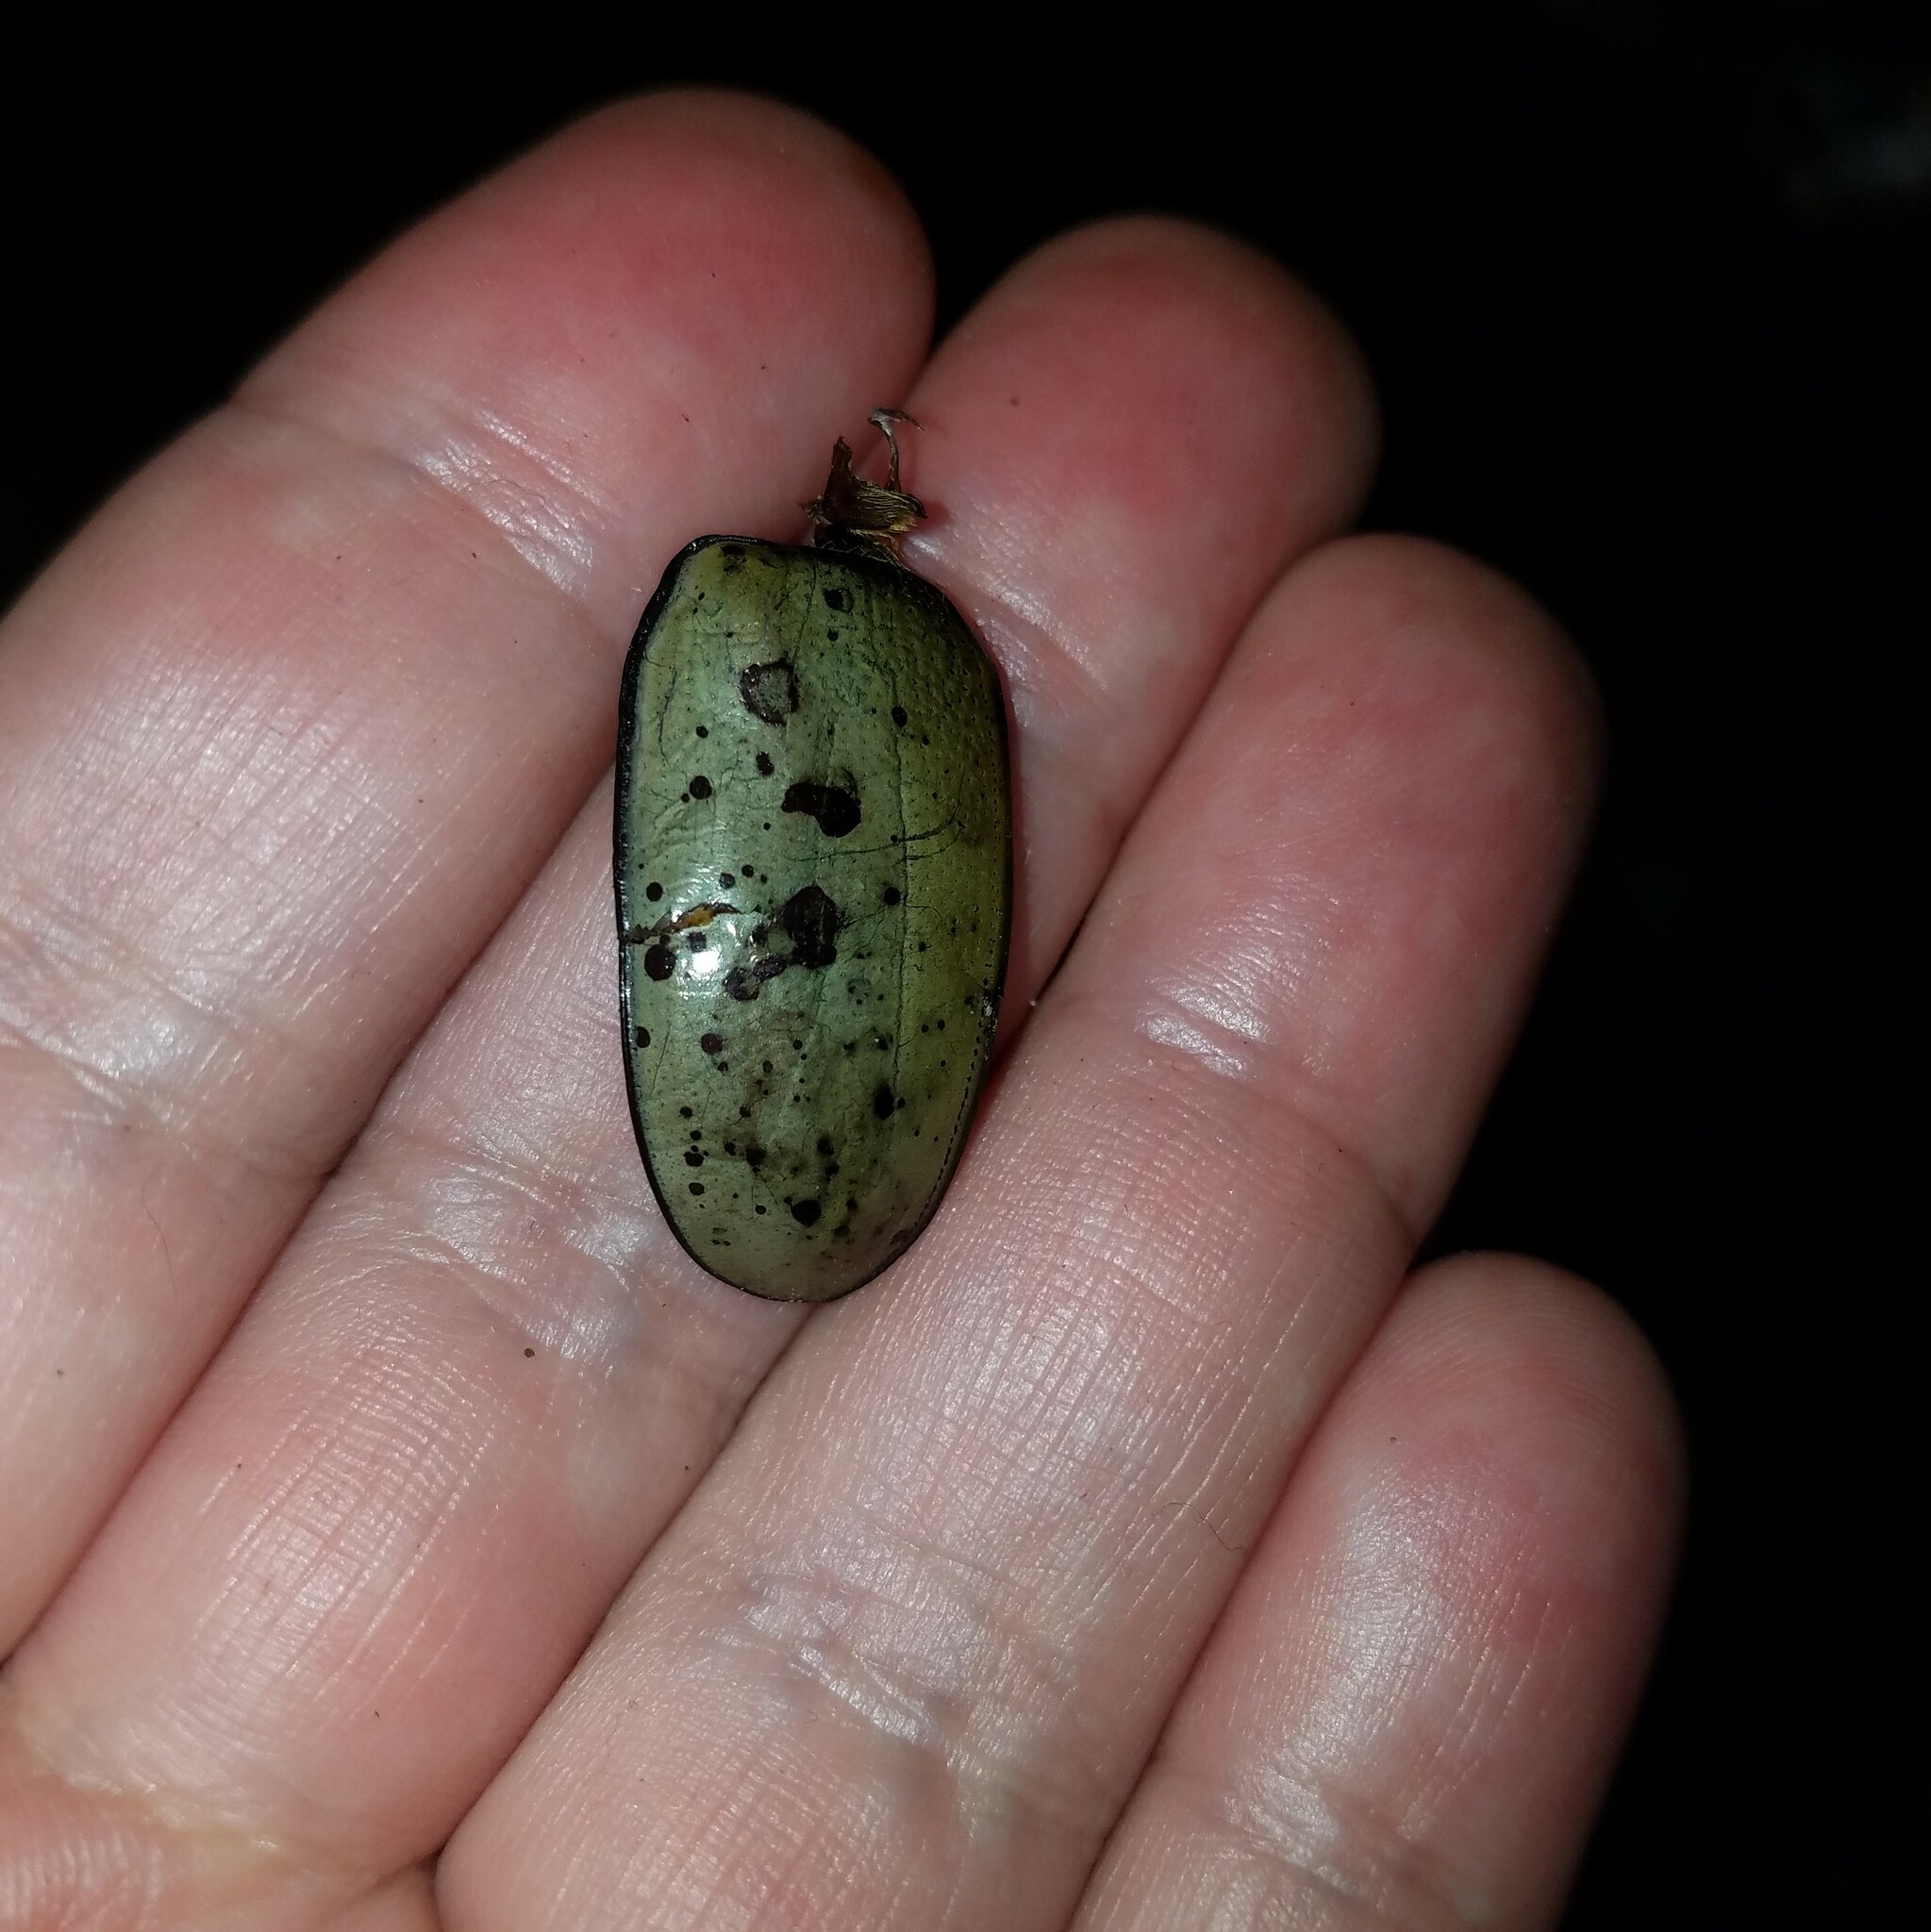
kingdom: Animalia
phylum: Arthropoda
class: Insecta
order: Coleoptera
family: Scarabaeidae
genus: Dynastes
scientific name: Dynastes tityus
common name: Eastern hercules beetle
